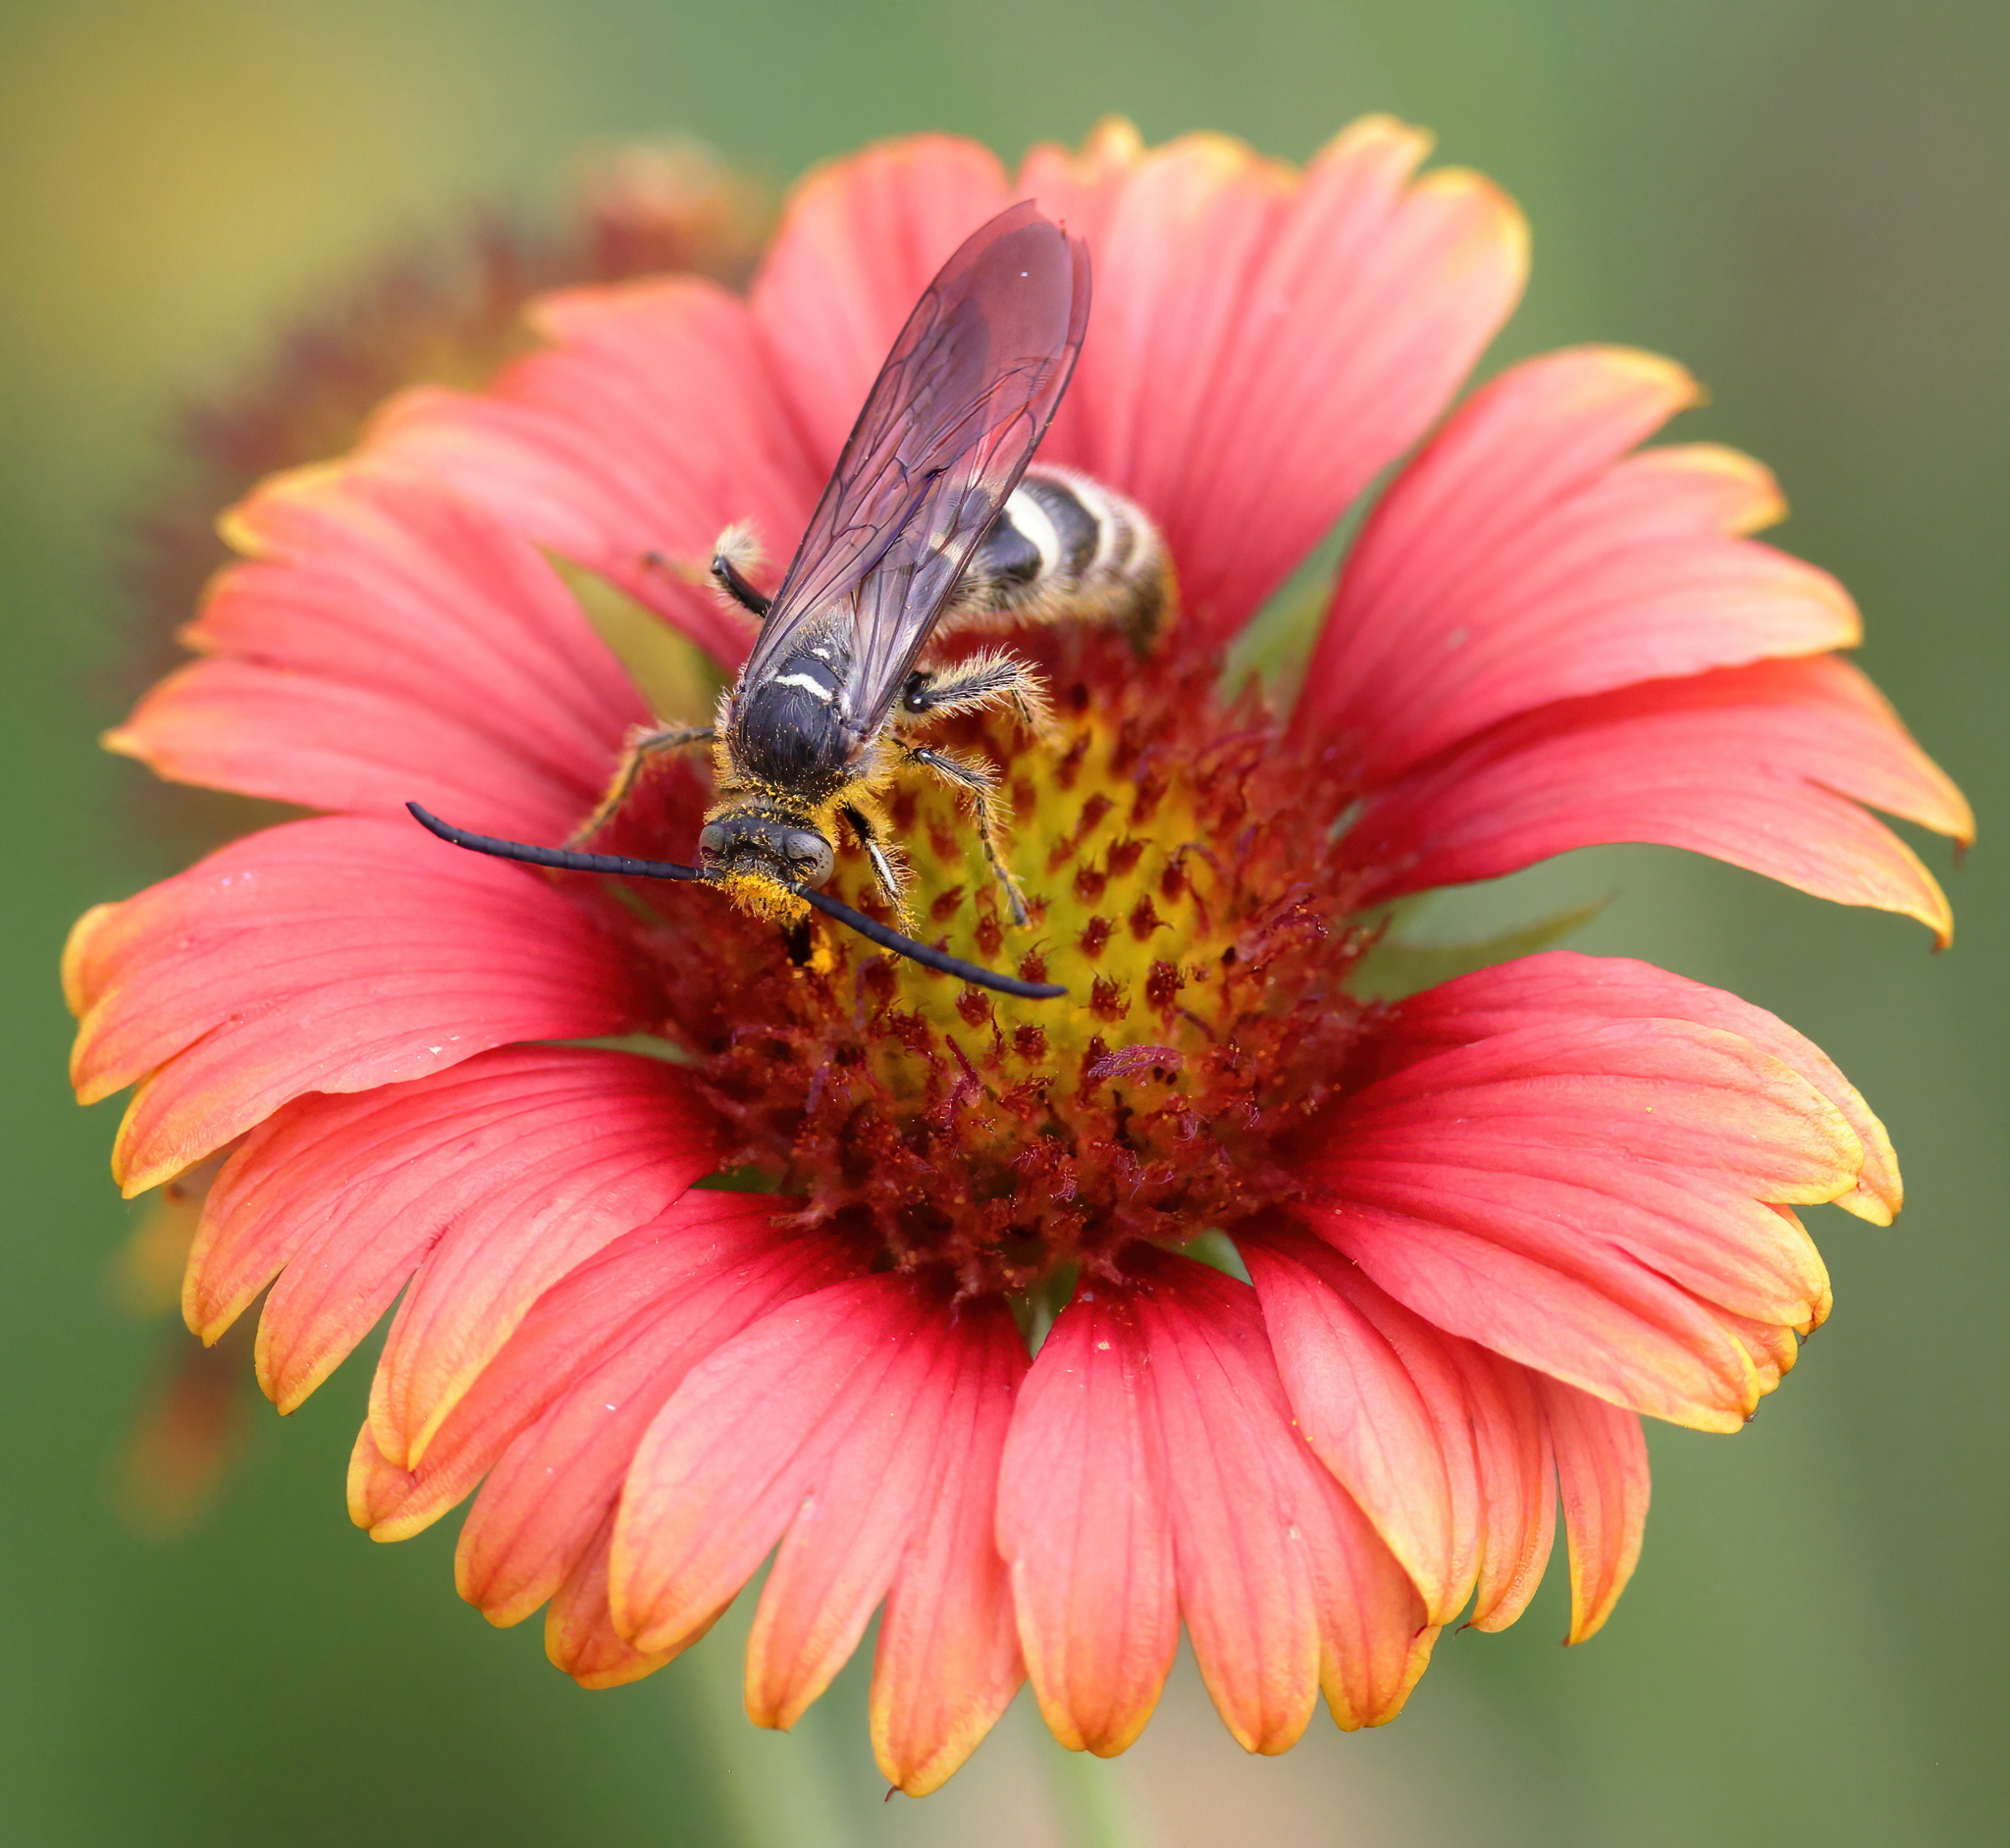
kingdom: Animalia
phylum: Arthropoda
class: Insecta
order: Hymenoptera
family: Scoliidae
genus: Dielis
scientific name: Dielis
